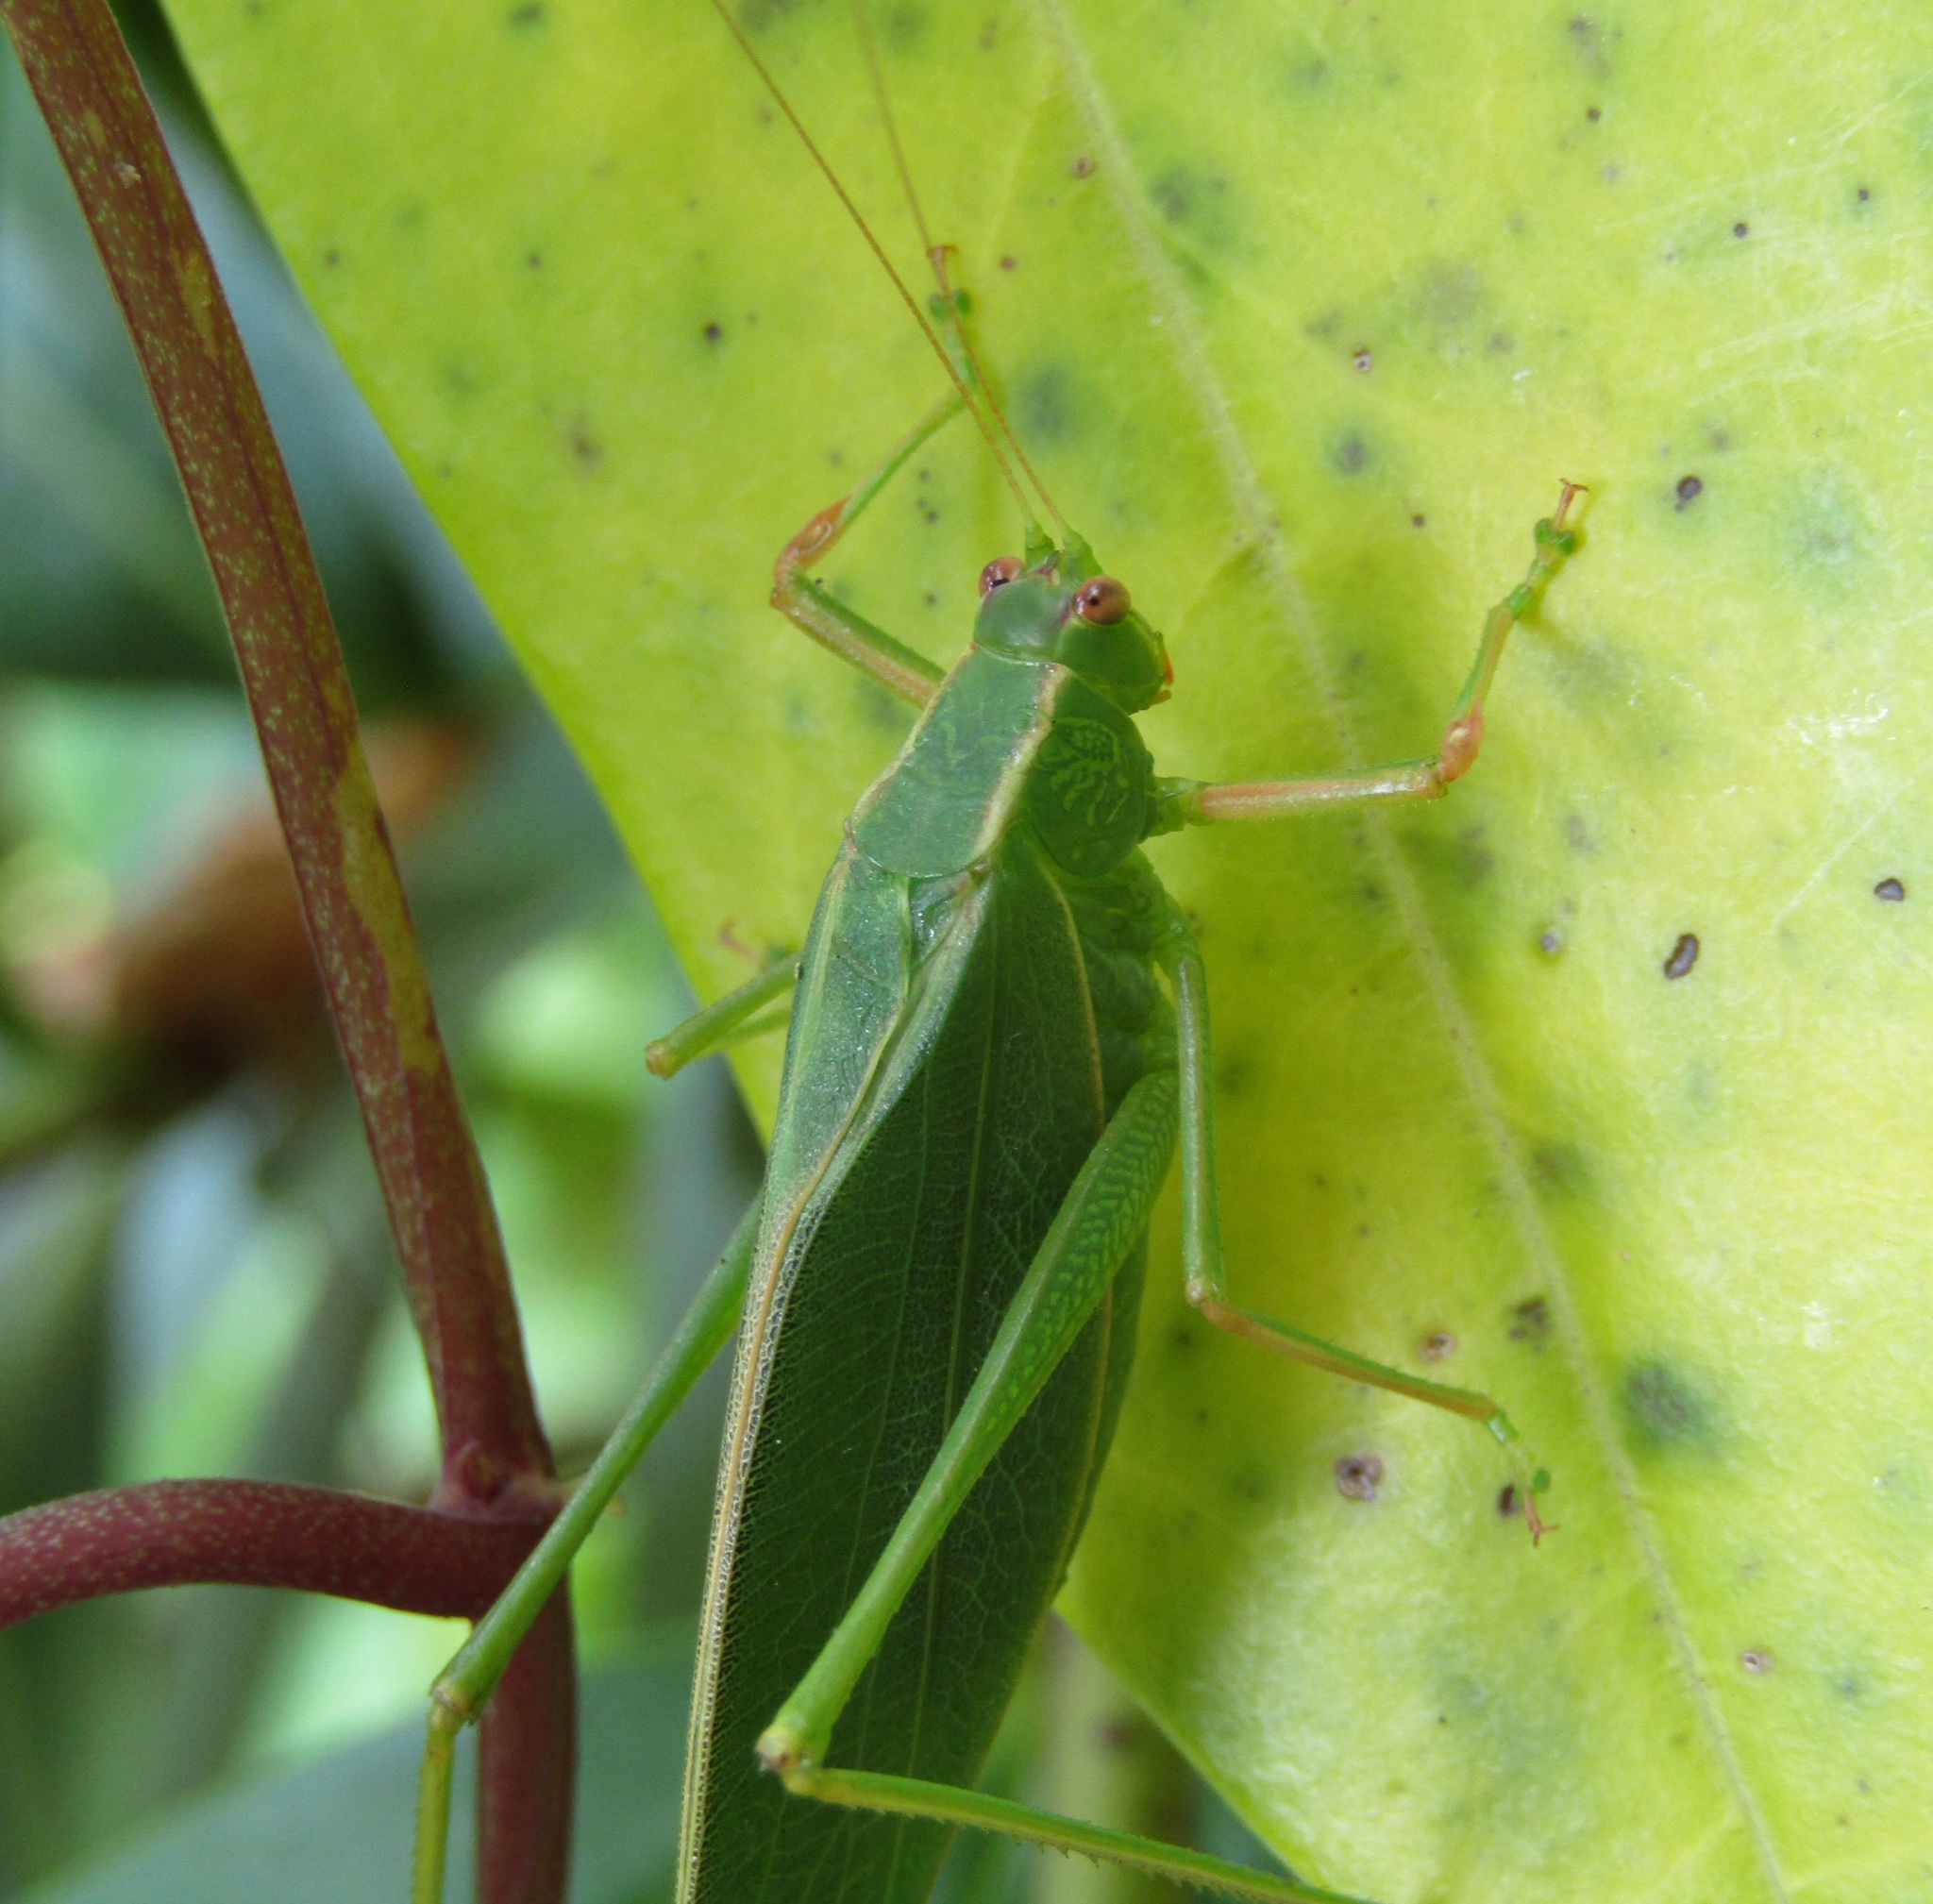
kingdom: Animalia
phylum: Arthropoda
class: Insecta
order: Orthoptera
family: Tettigoniidae
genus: Caedicia
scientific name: Caedicia simplex
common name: Common garden katydid
